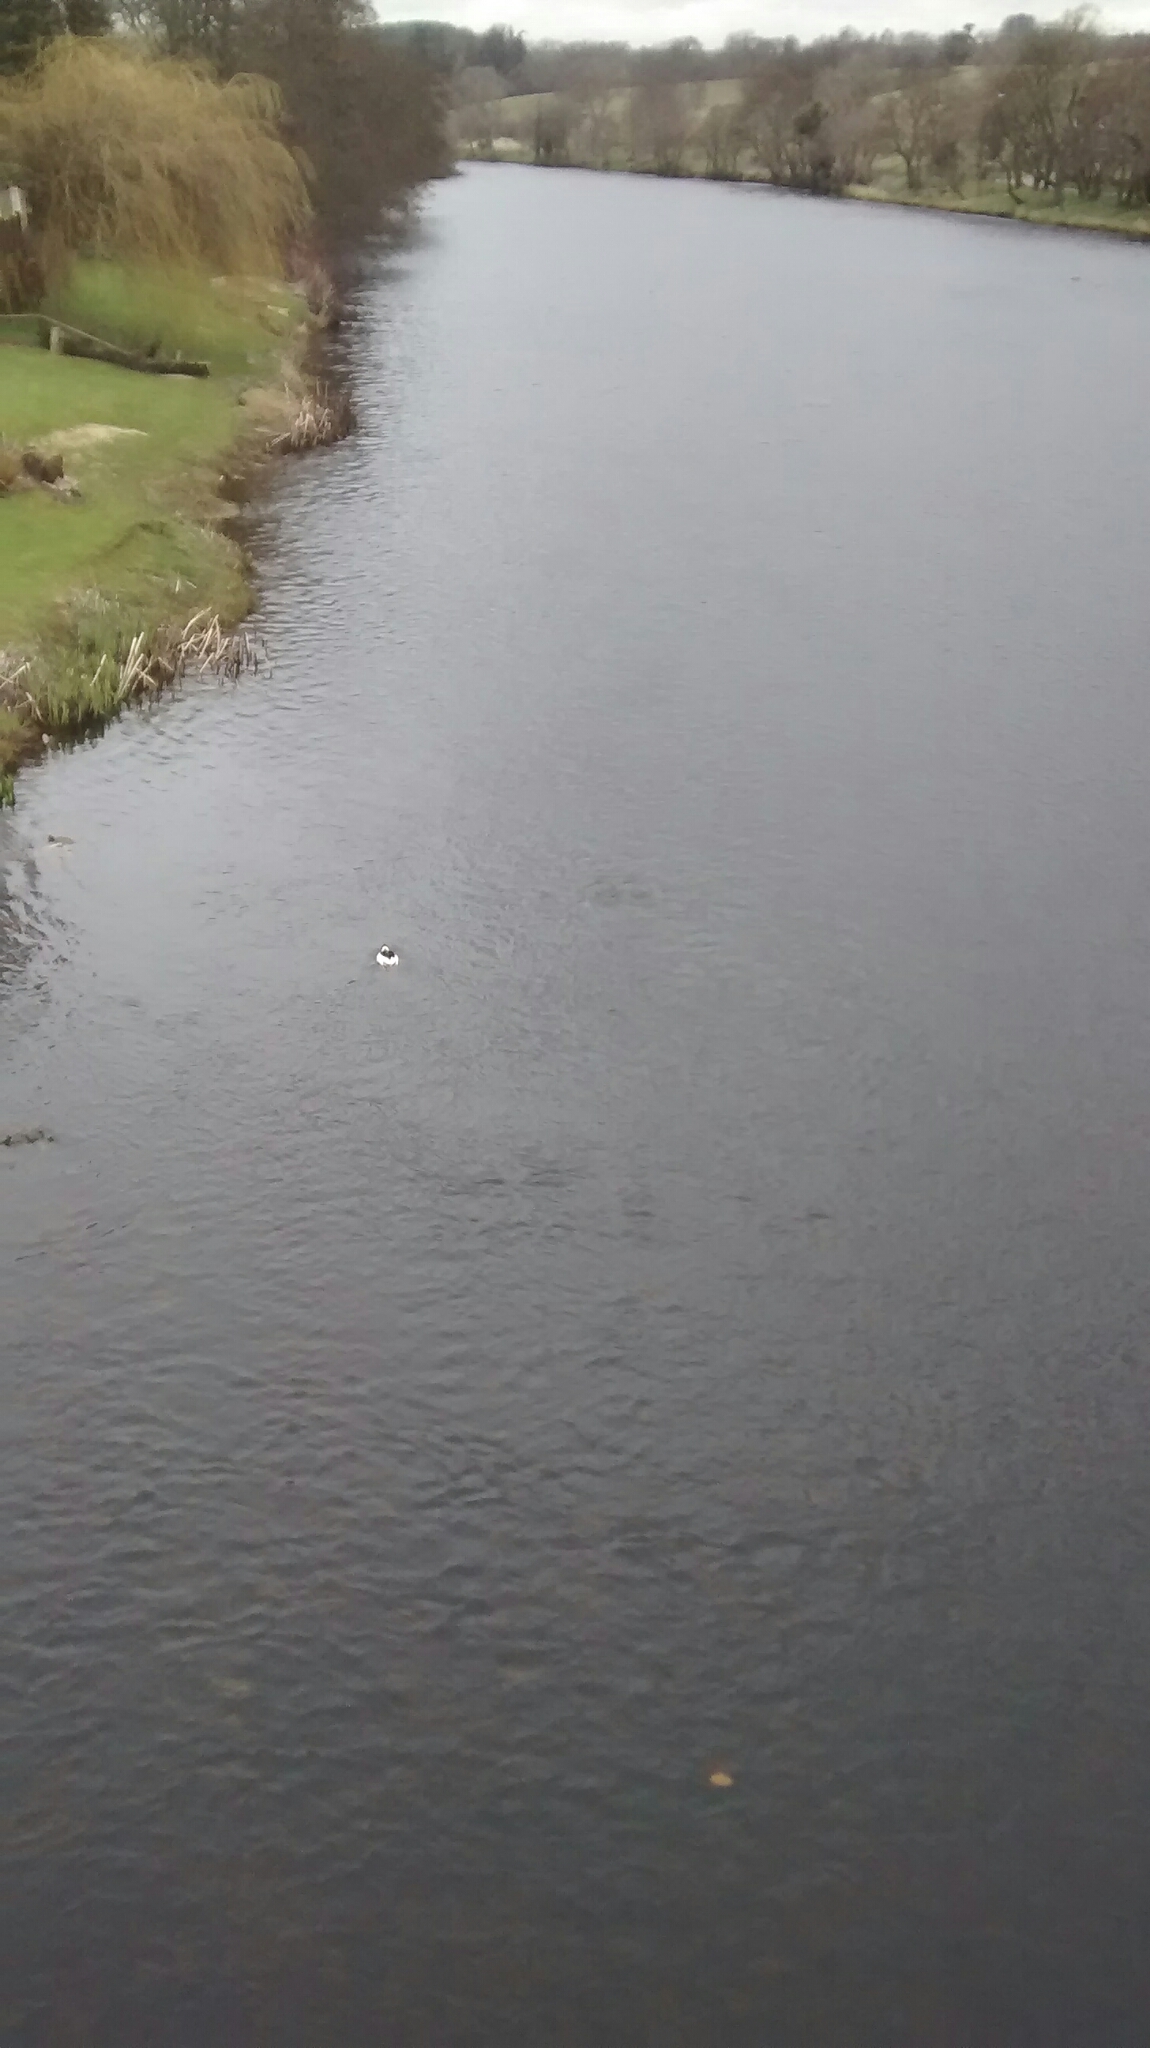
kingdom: Animalia
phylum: Chordata
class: Aves
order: Anseriformes
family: Anatidae
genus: Mergus
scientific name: Mergus merganser
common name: Common merganser
